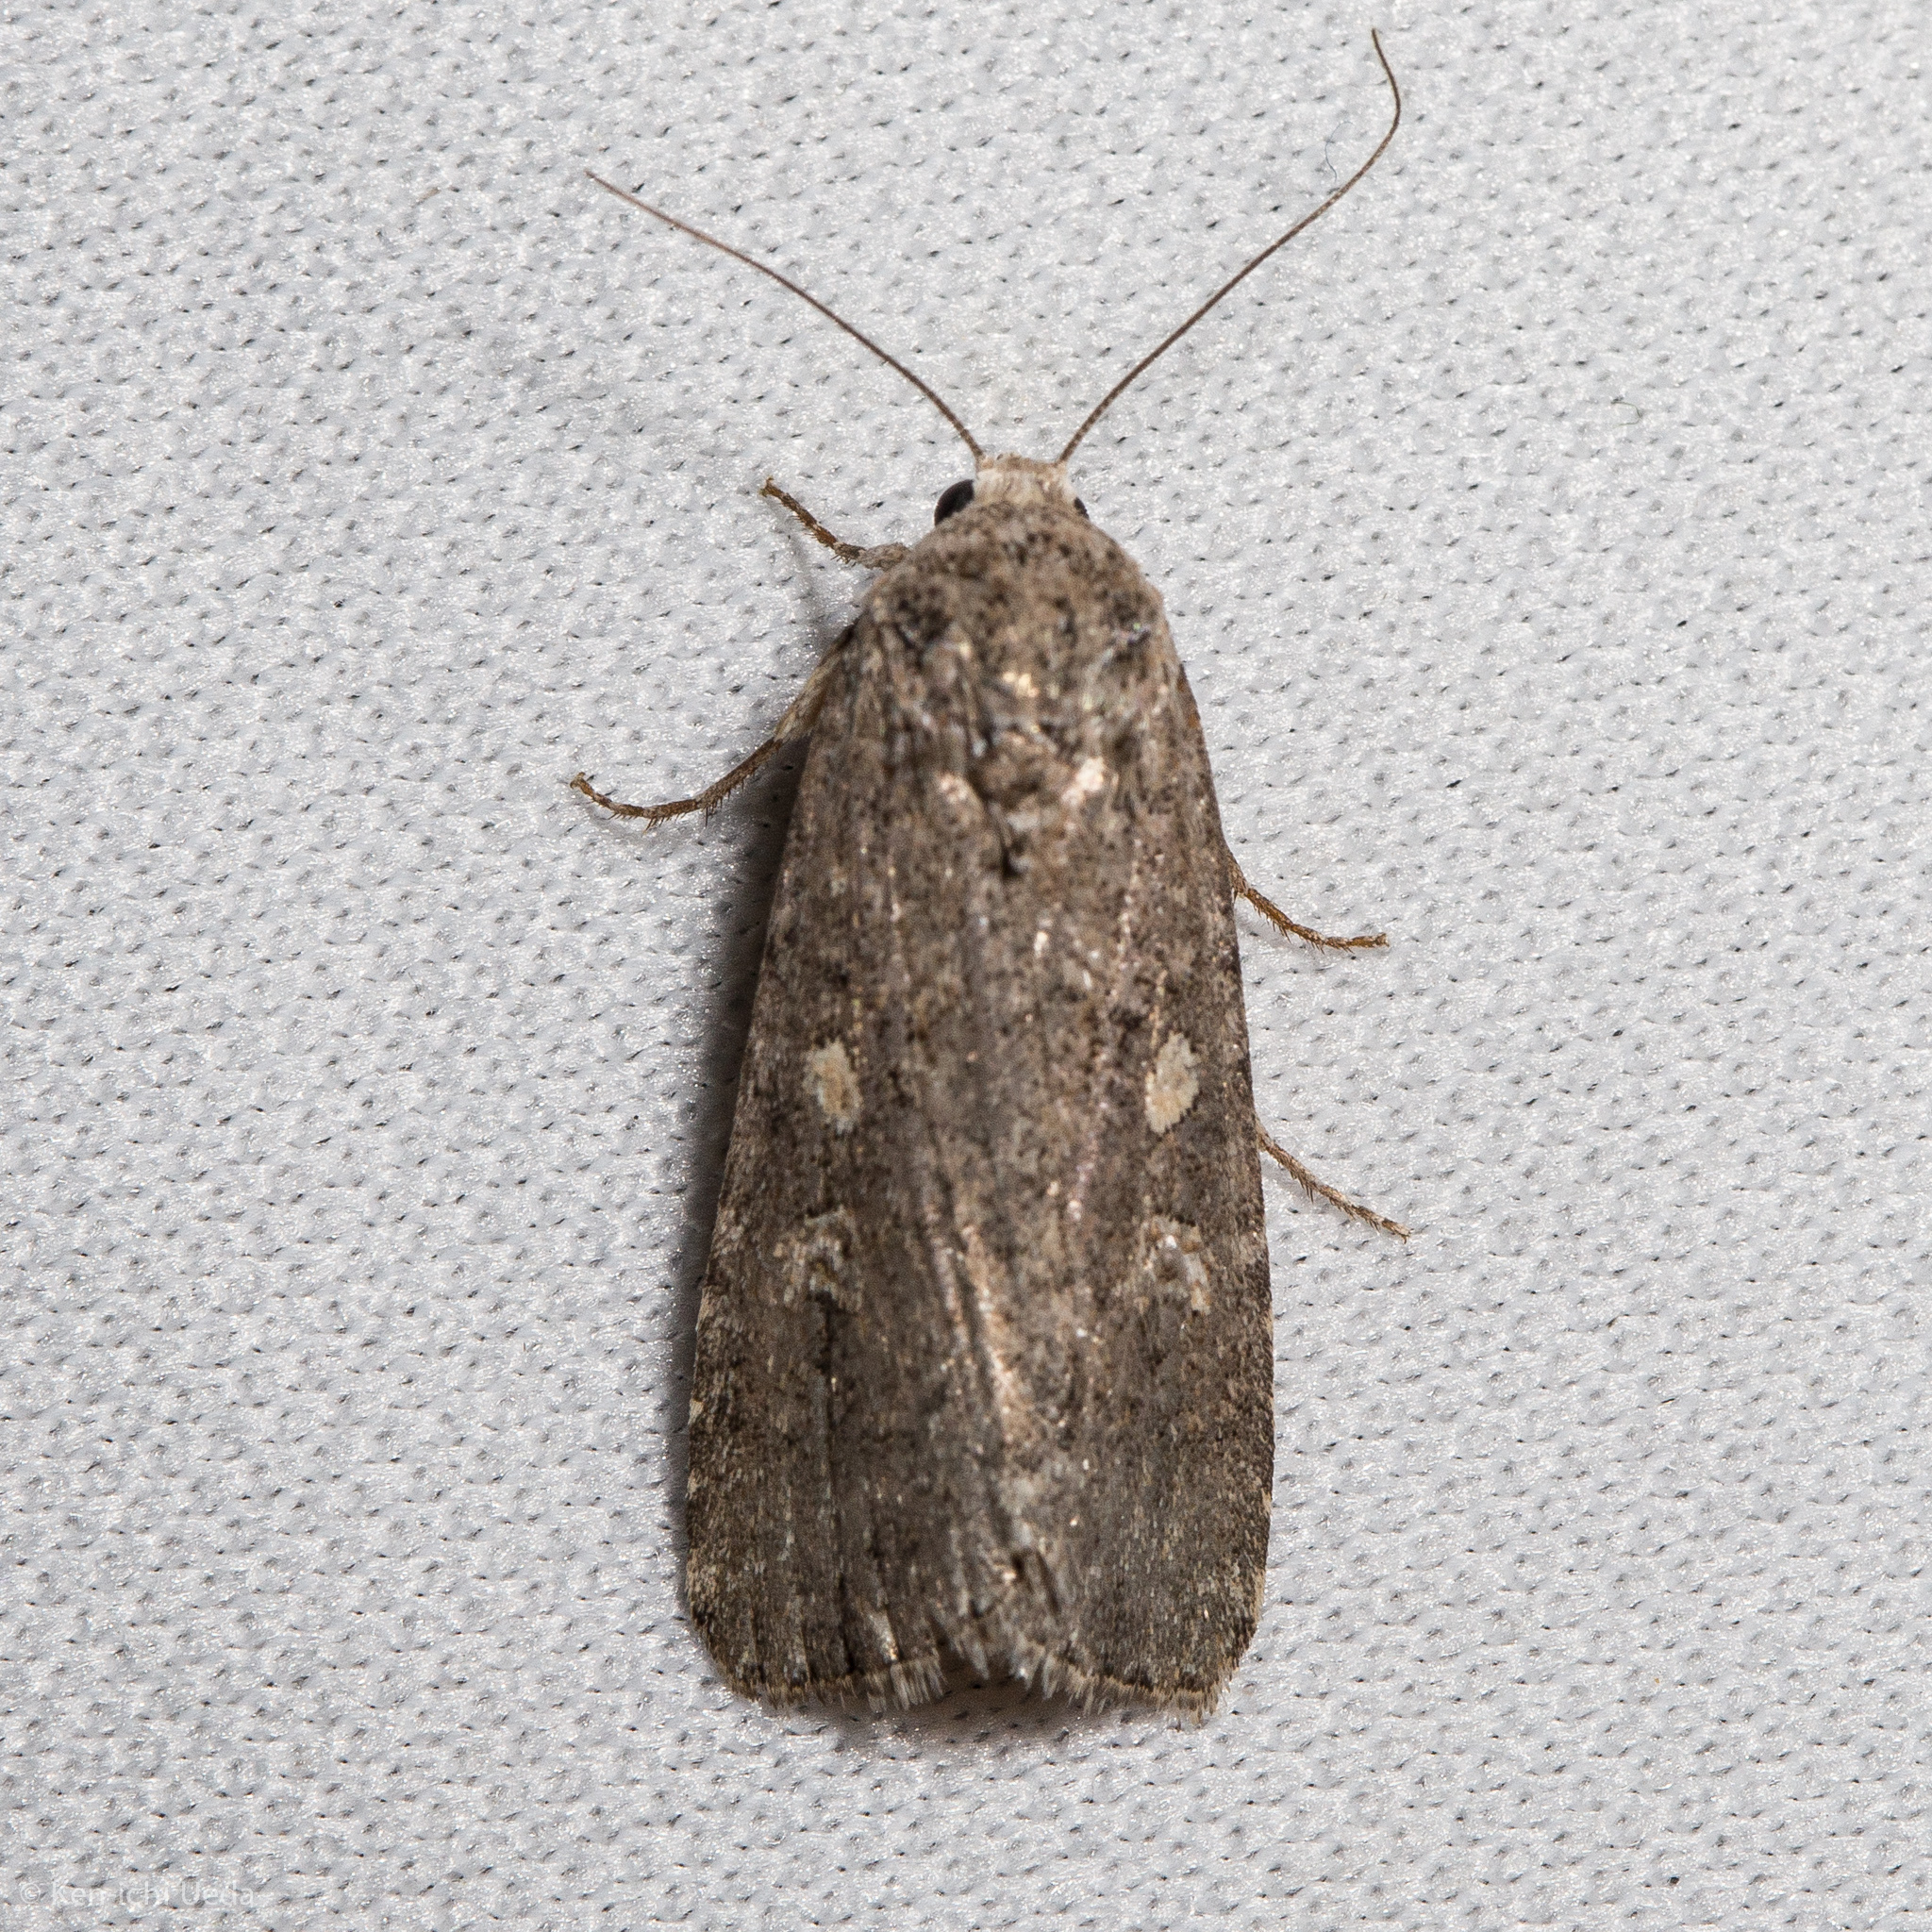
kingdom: Animalia
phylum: Arthropoda
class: Insecta
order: Lepidoptera
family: Noctuidae
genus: Spodoptera
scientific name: Spodoptera exigua
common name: Beet armyworm
